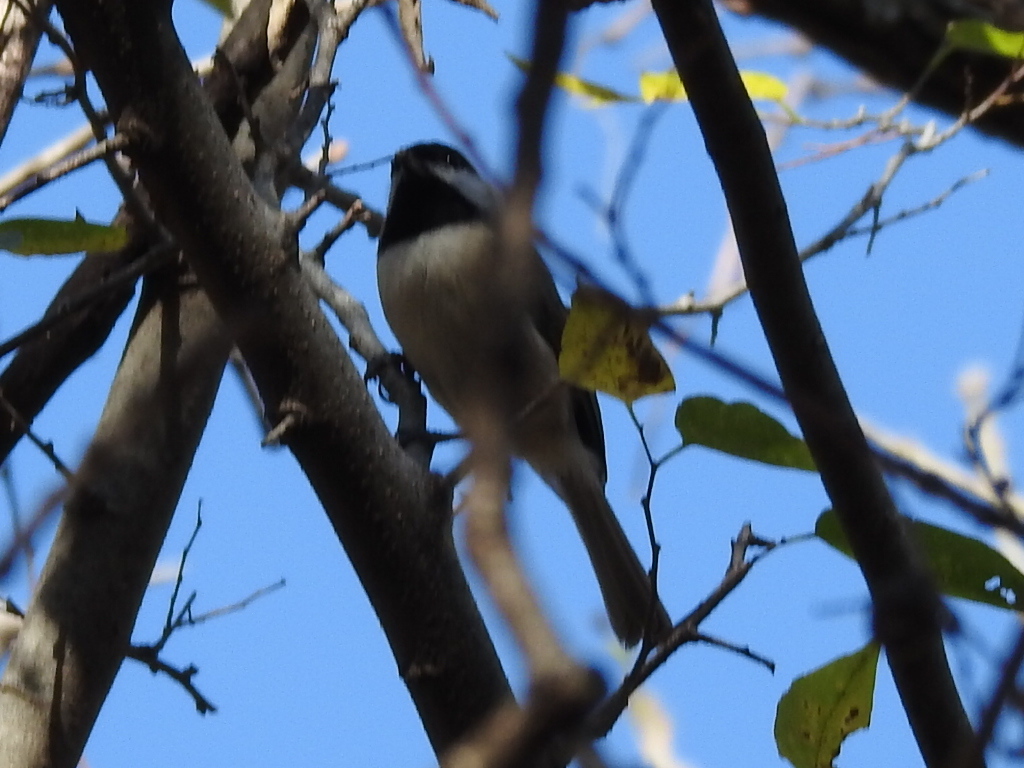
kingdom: Animalia
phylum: Chordata
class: Aves
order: Passeriformes
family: Paridae
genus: Poecile
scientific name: Poecile carolinensis
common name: Carolina chickadee
